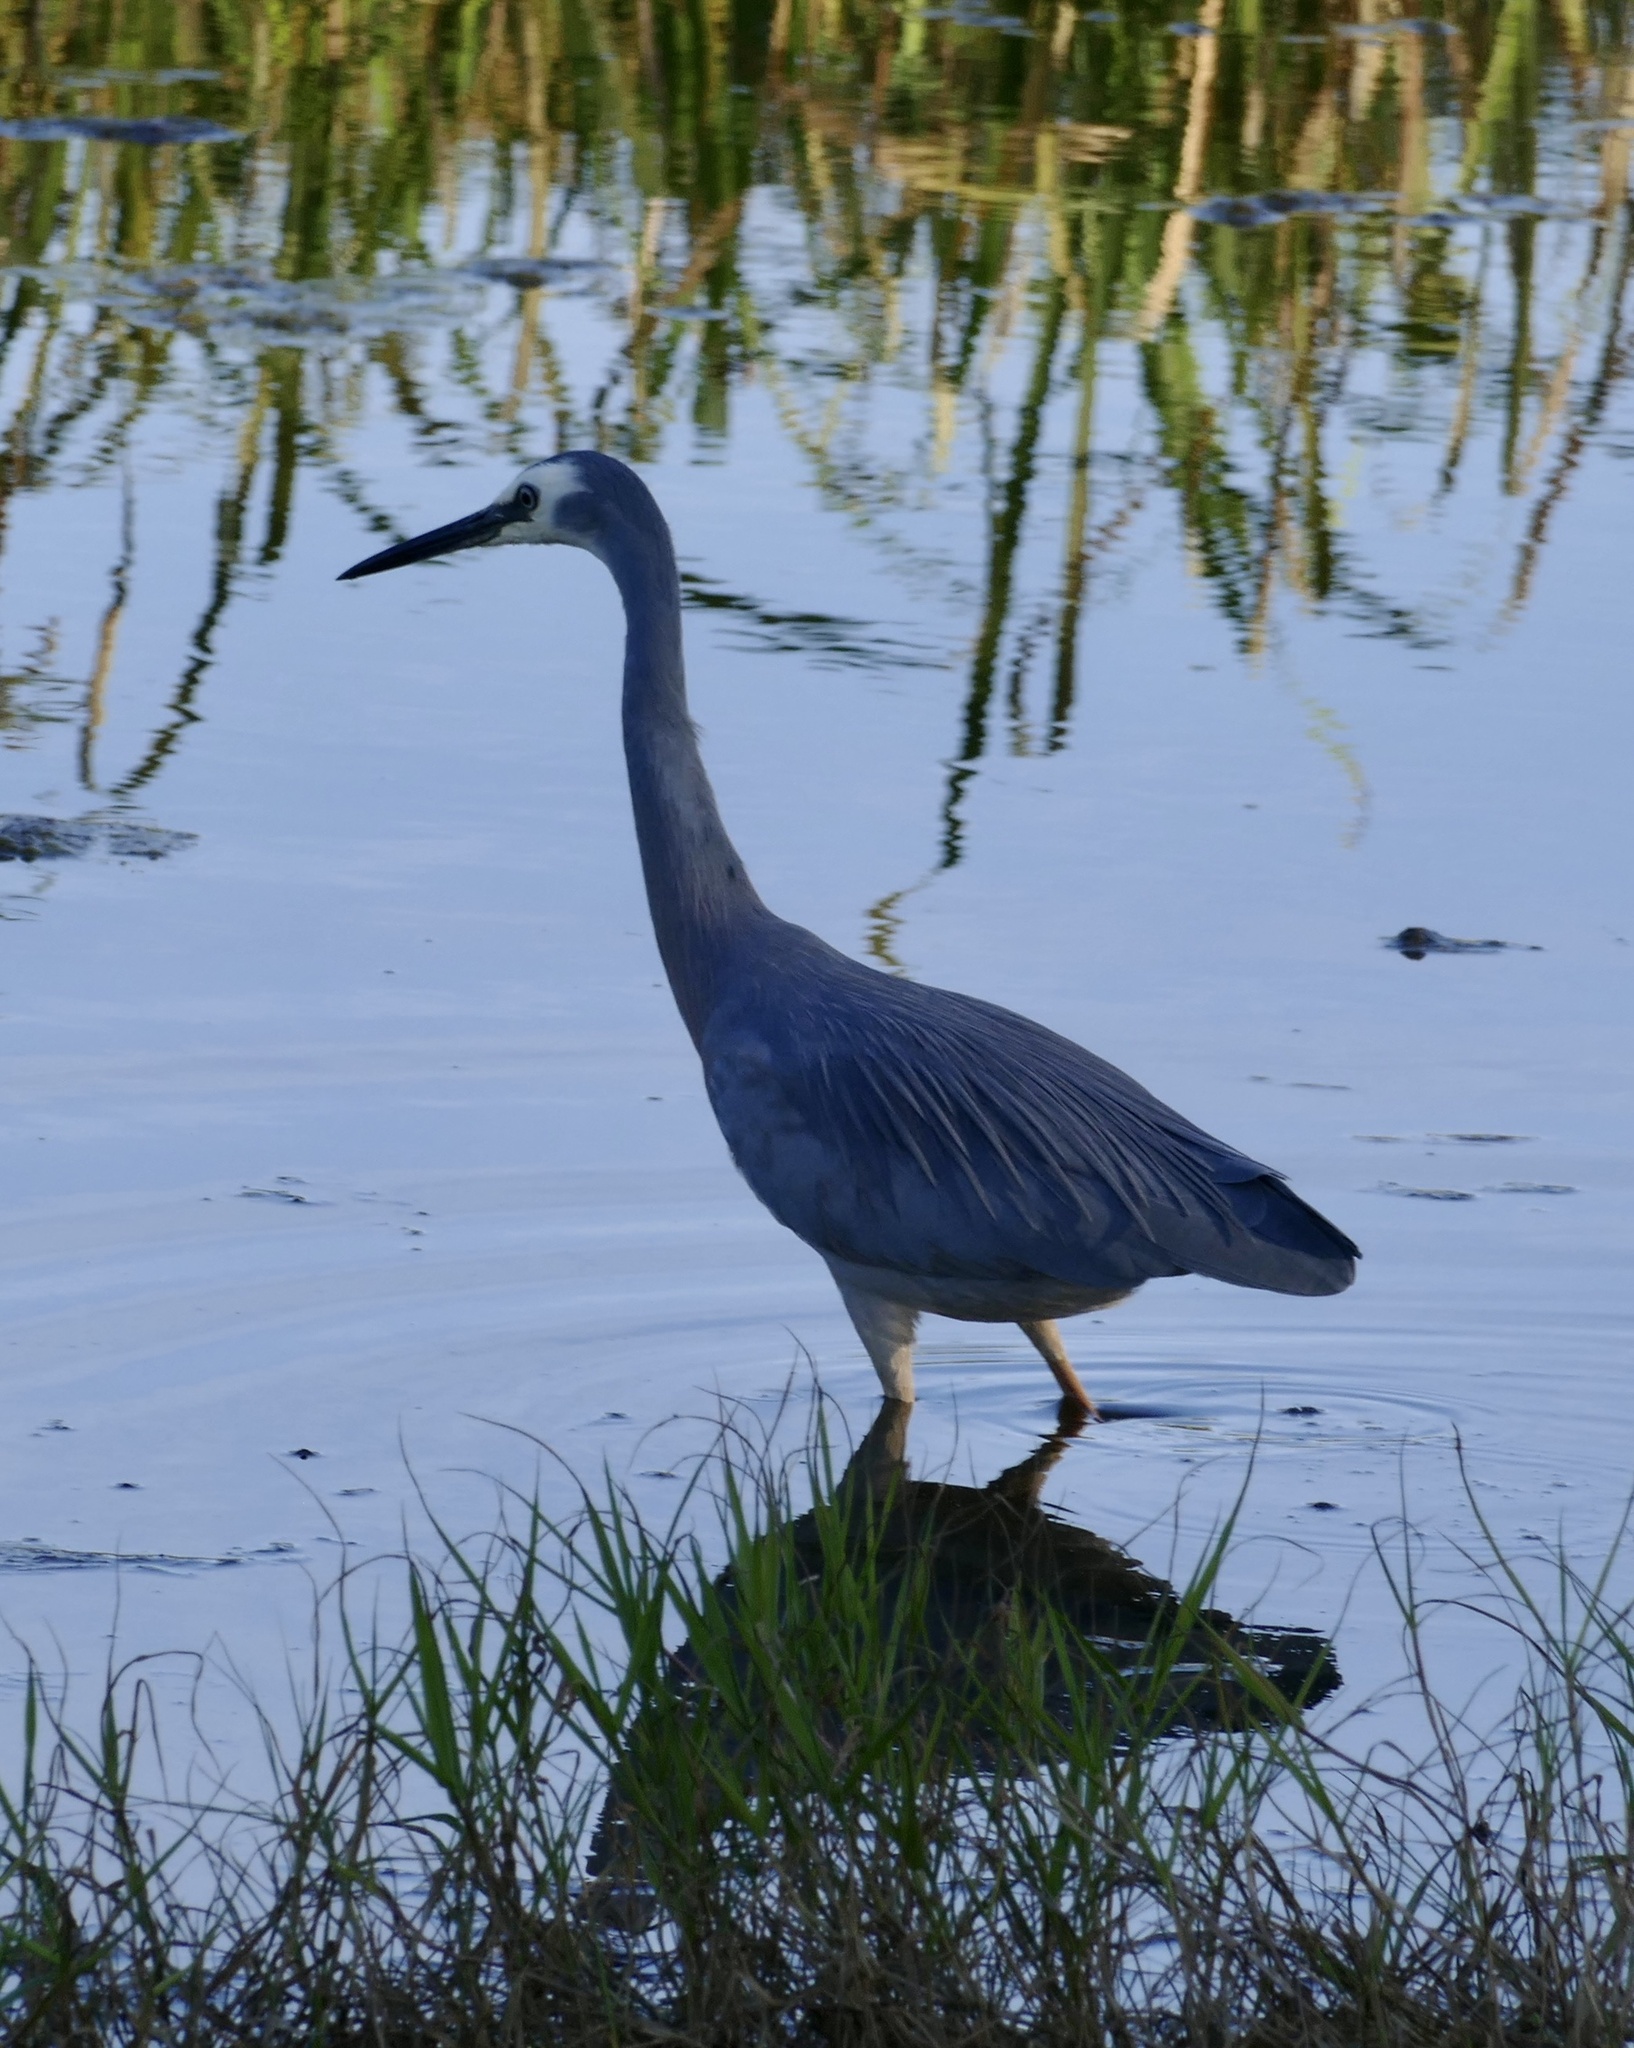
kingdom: Animalia
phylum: Chordata
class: Aves
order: Pelecaniformes
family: Ardeidae
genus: Egretta
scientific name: Egretta novaehollandiae
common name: White-faced heron
